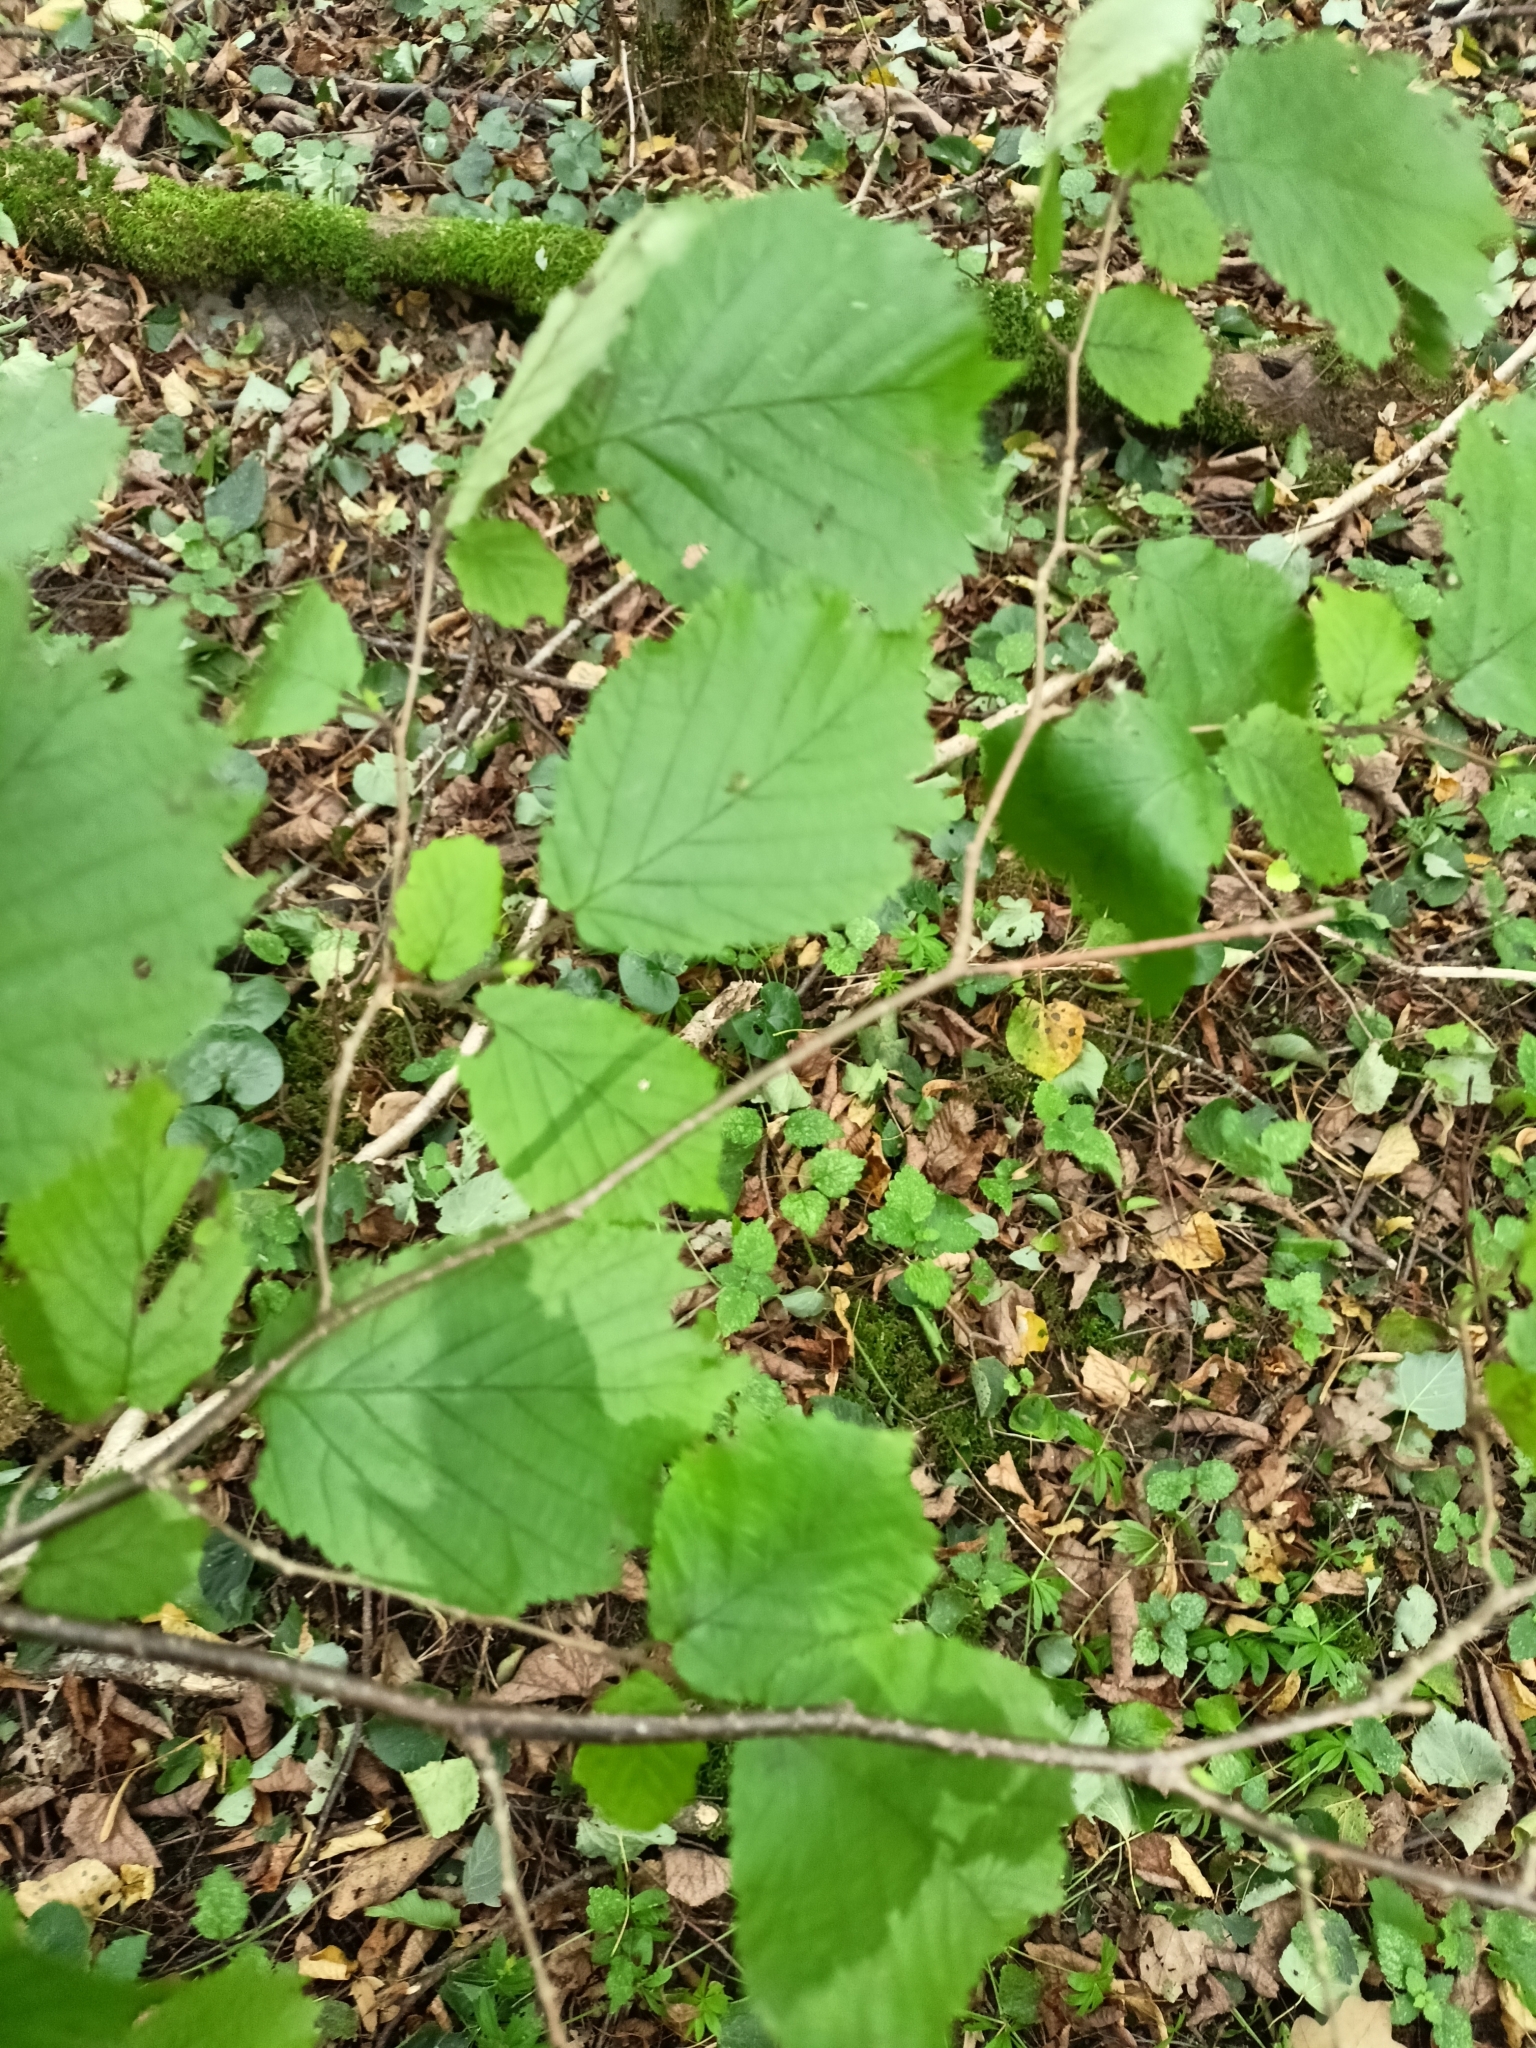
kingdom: Plantae
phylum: Tracheophyta
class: Magnoliopsida
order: Fagales
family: Betulaceae
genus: Corylus
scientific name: Corylus avellana
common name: European hazel
